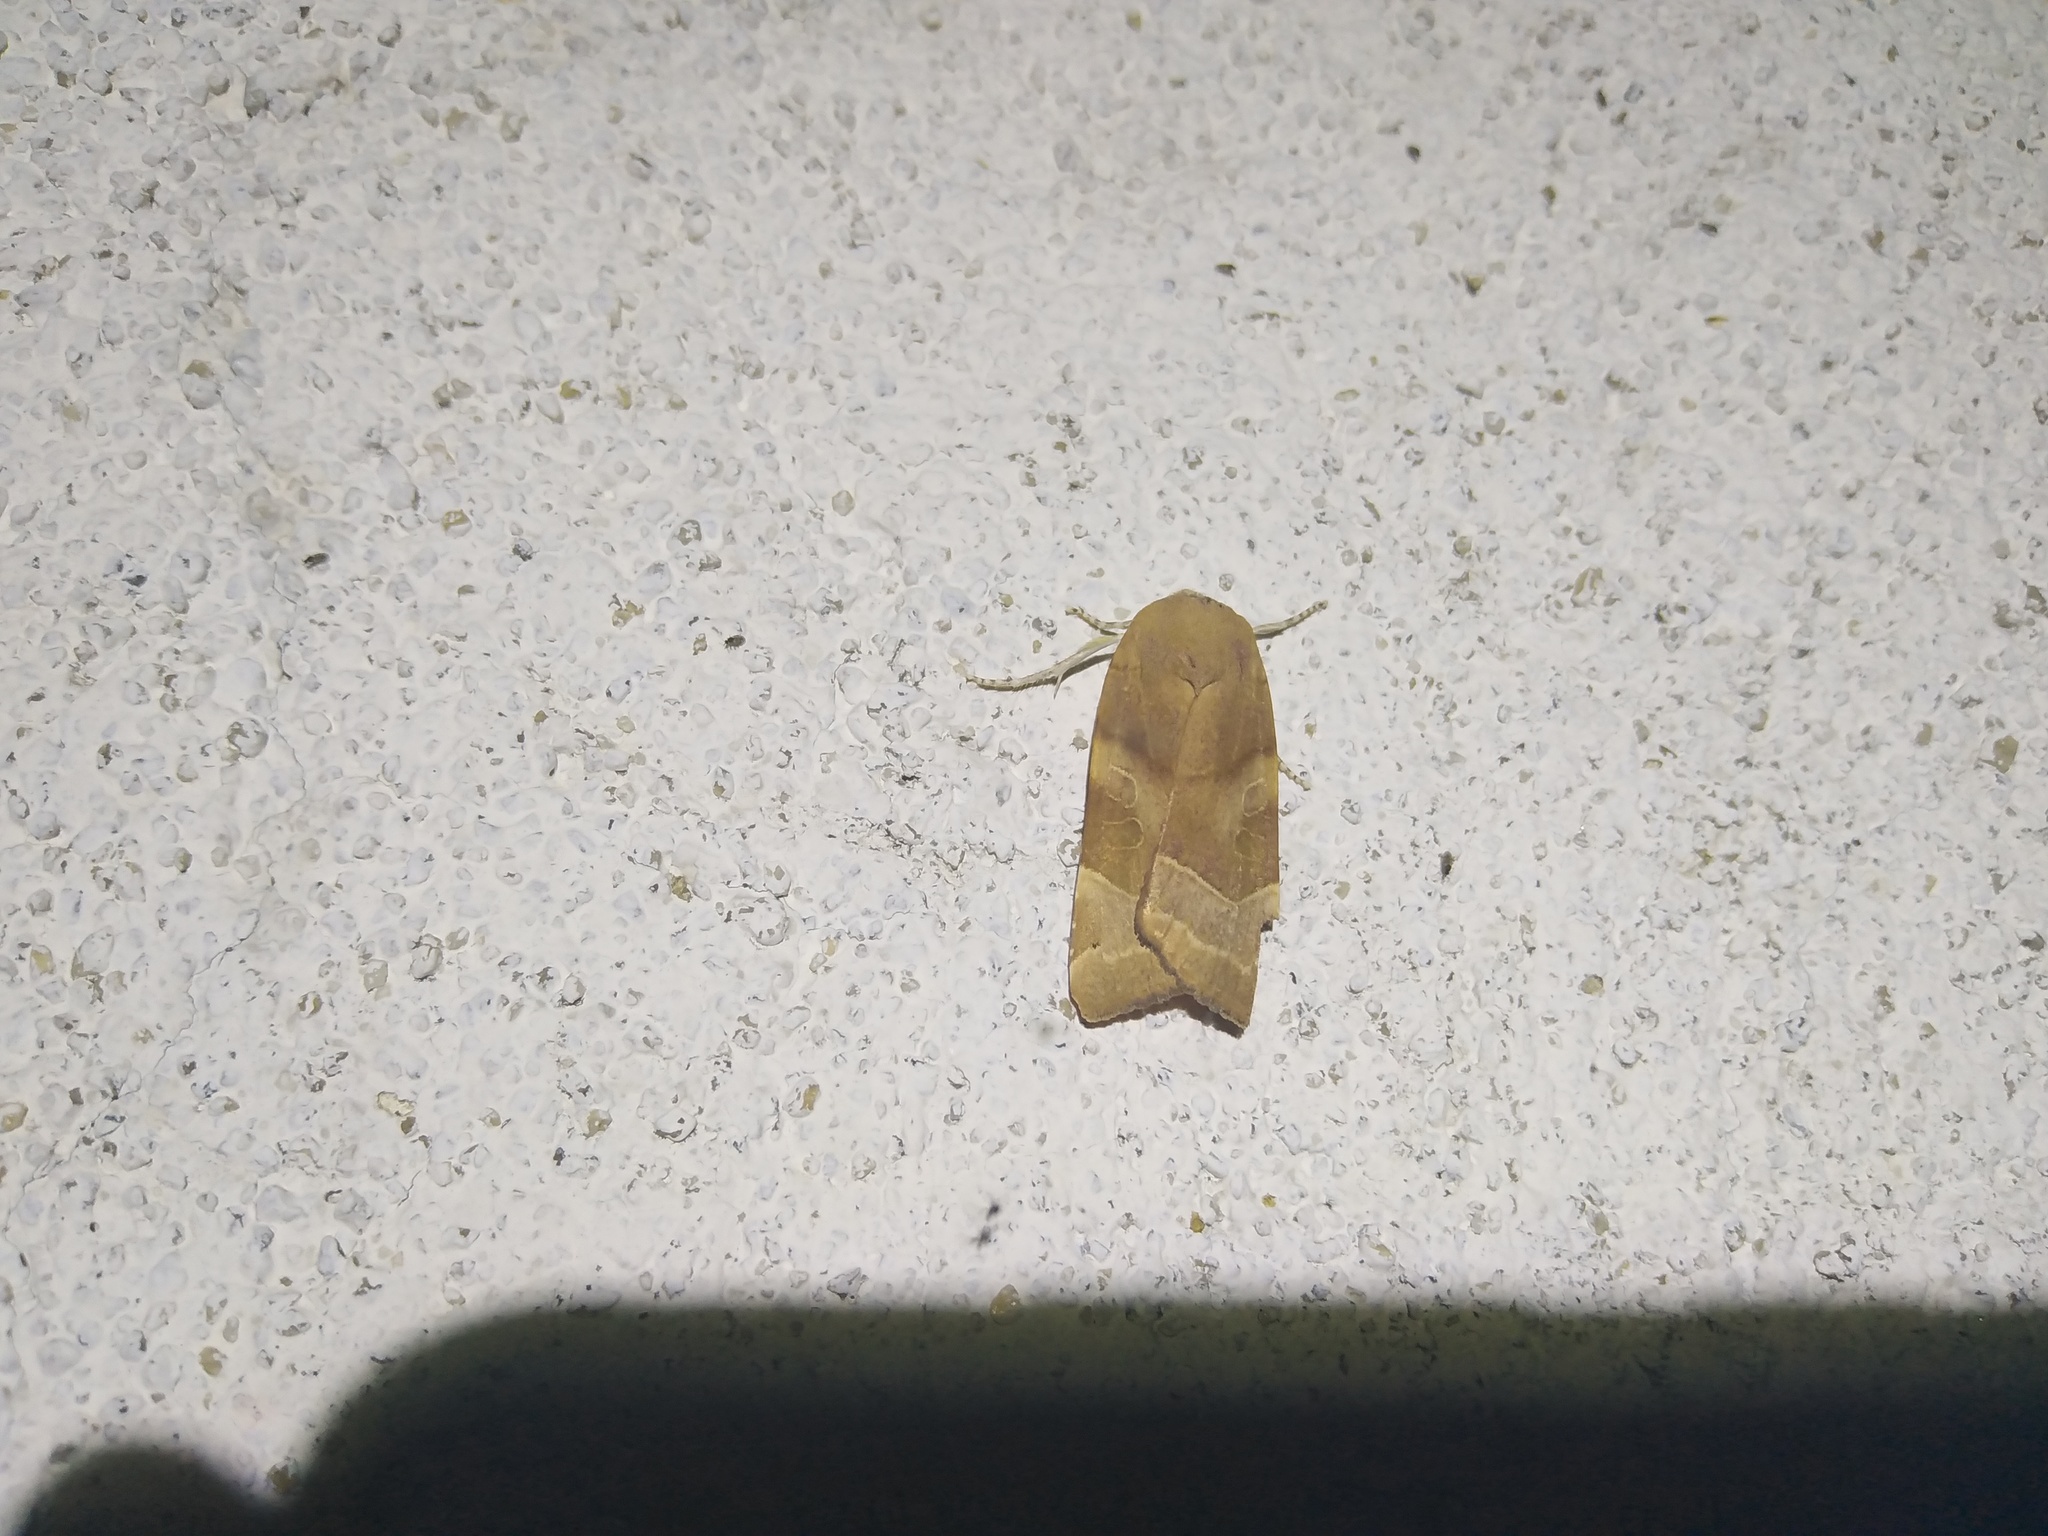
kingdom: Animalia
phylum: Arthropoda
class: Insecta
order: Lepidoptera
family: Noctuidae
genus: Noctua
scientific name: Noctua fimbriata
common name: Broad-bordered yellow underwing
